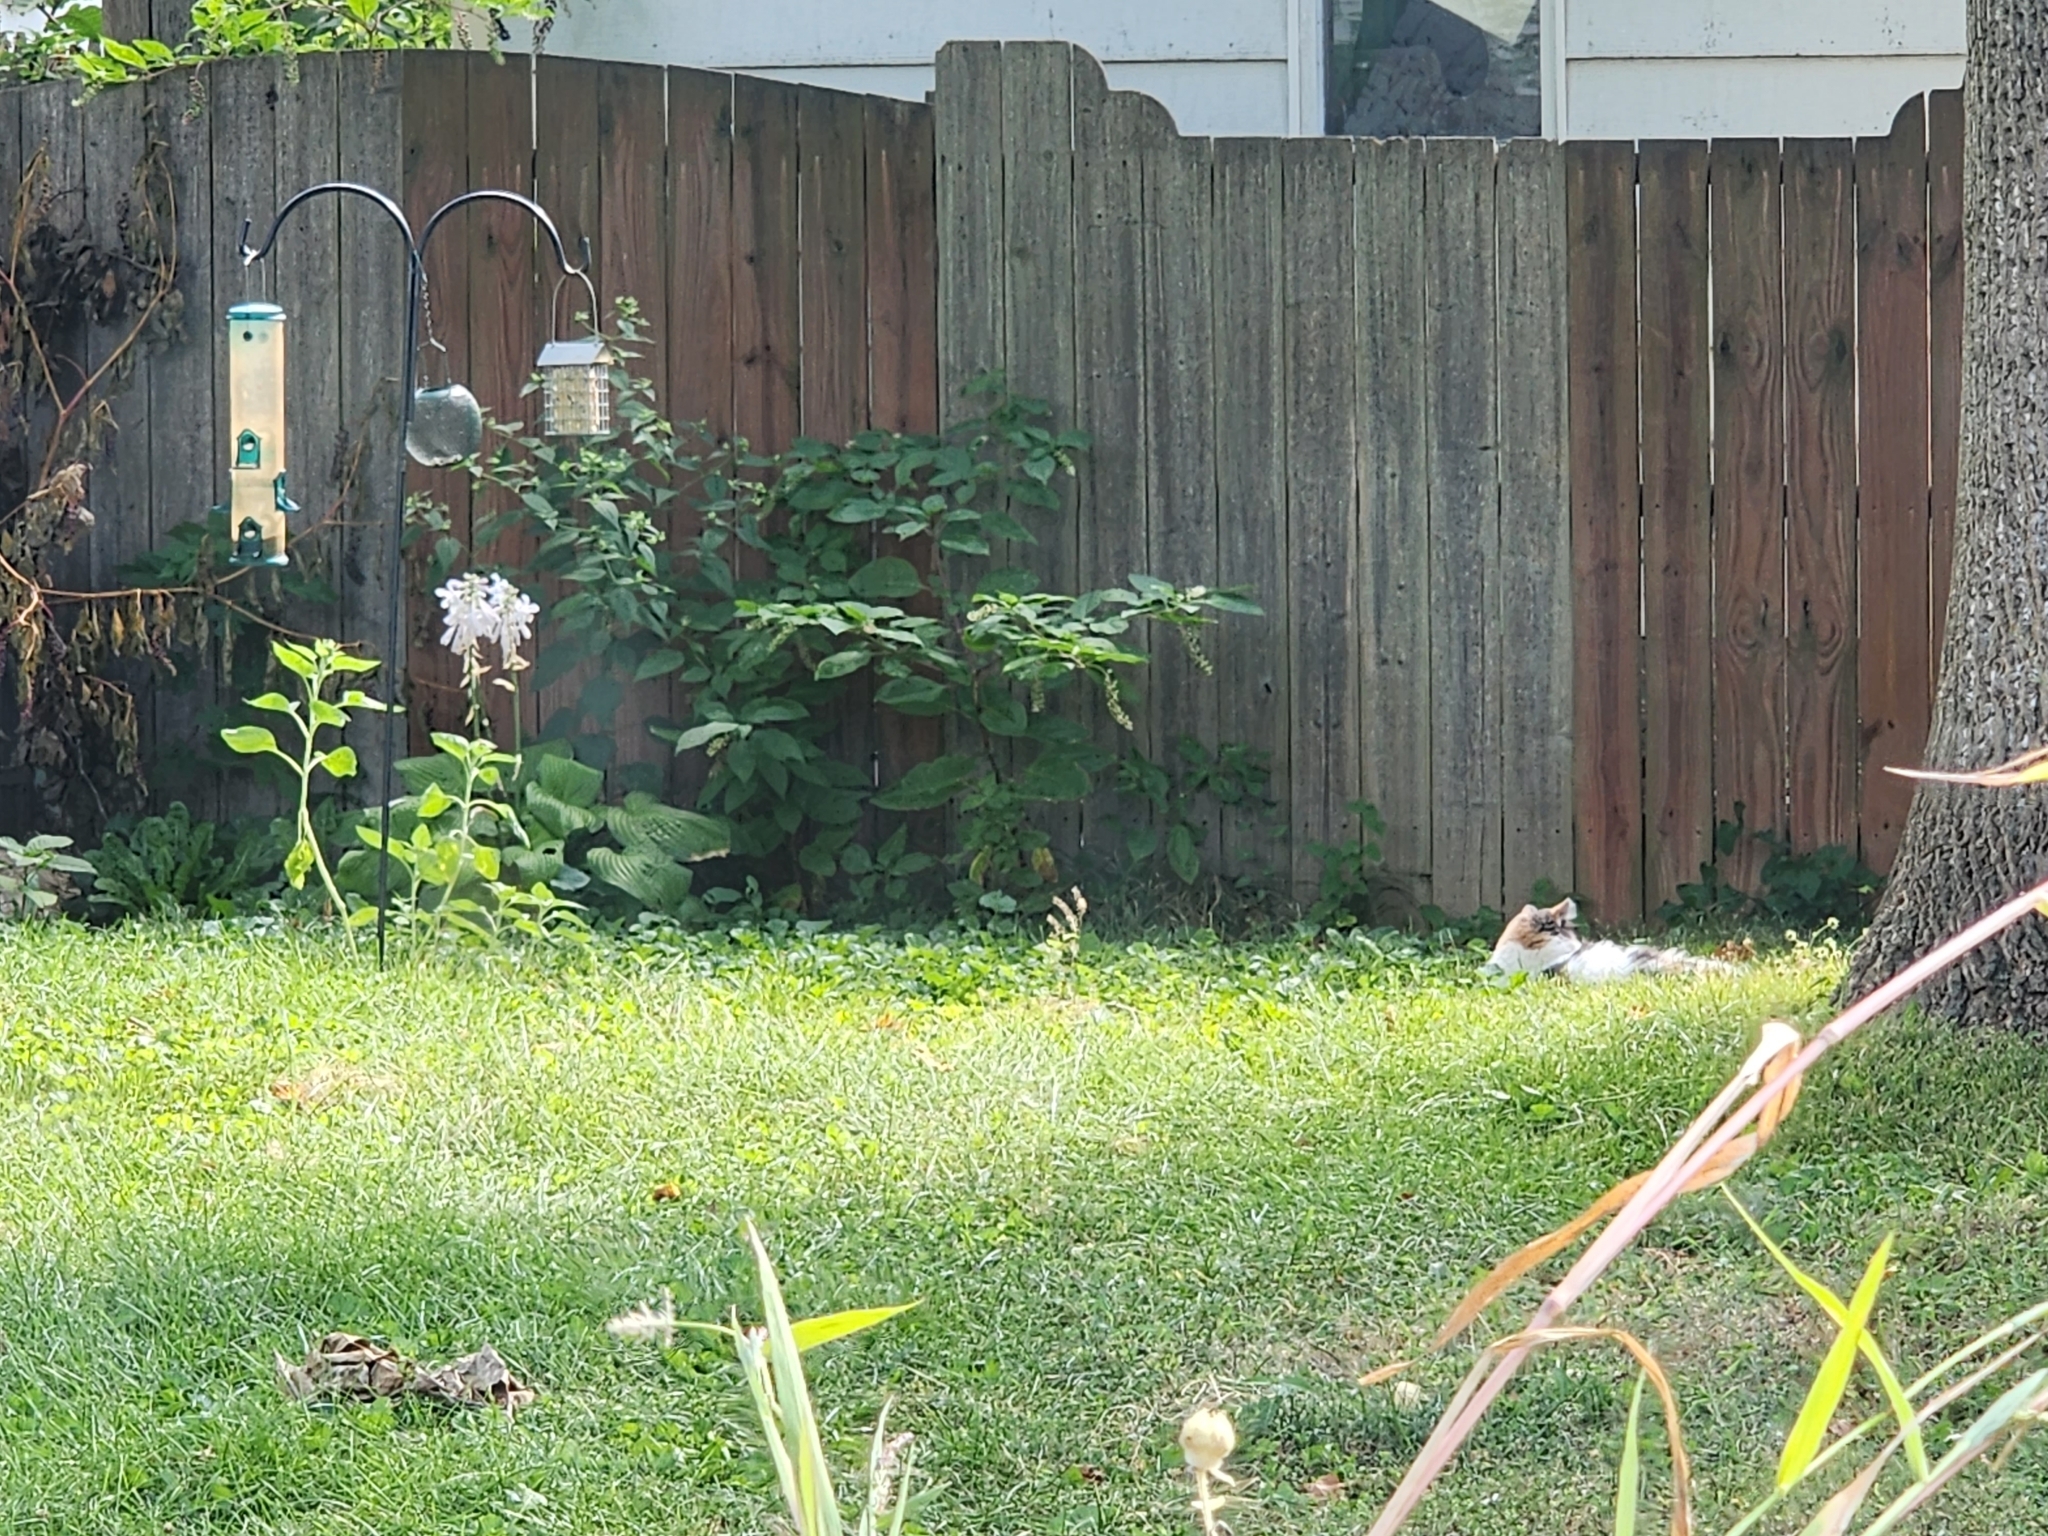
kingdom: Animalia
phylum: Chordata
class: Mammalia
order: Carnivora
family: Felidae
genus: Felis
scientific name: Felis catus
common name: Domestic cat
